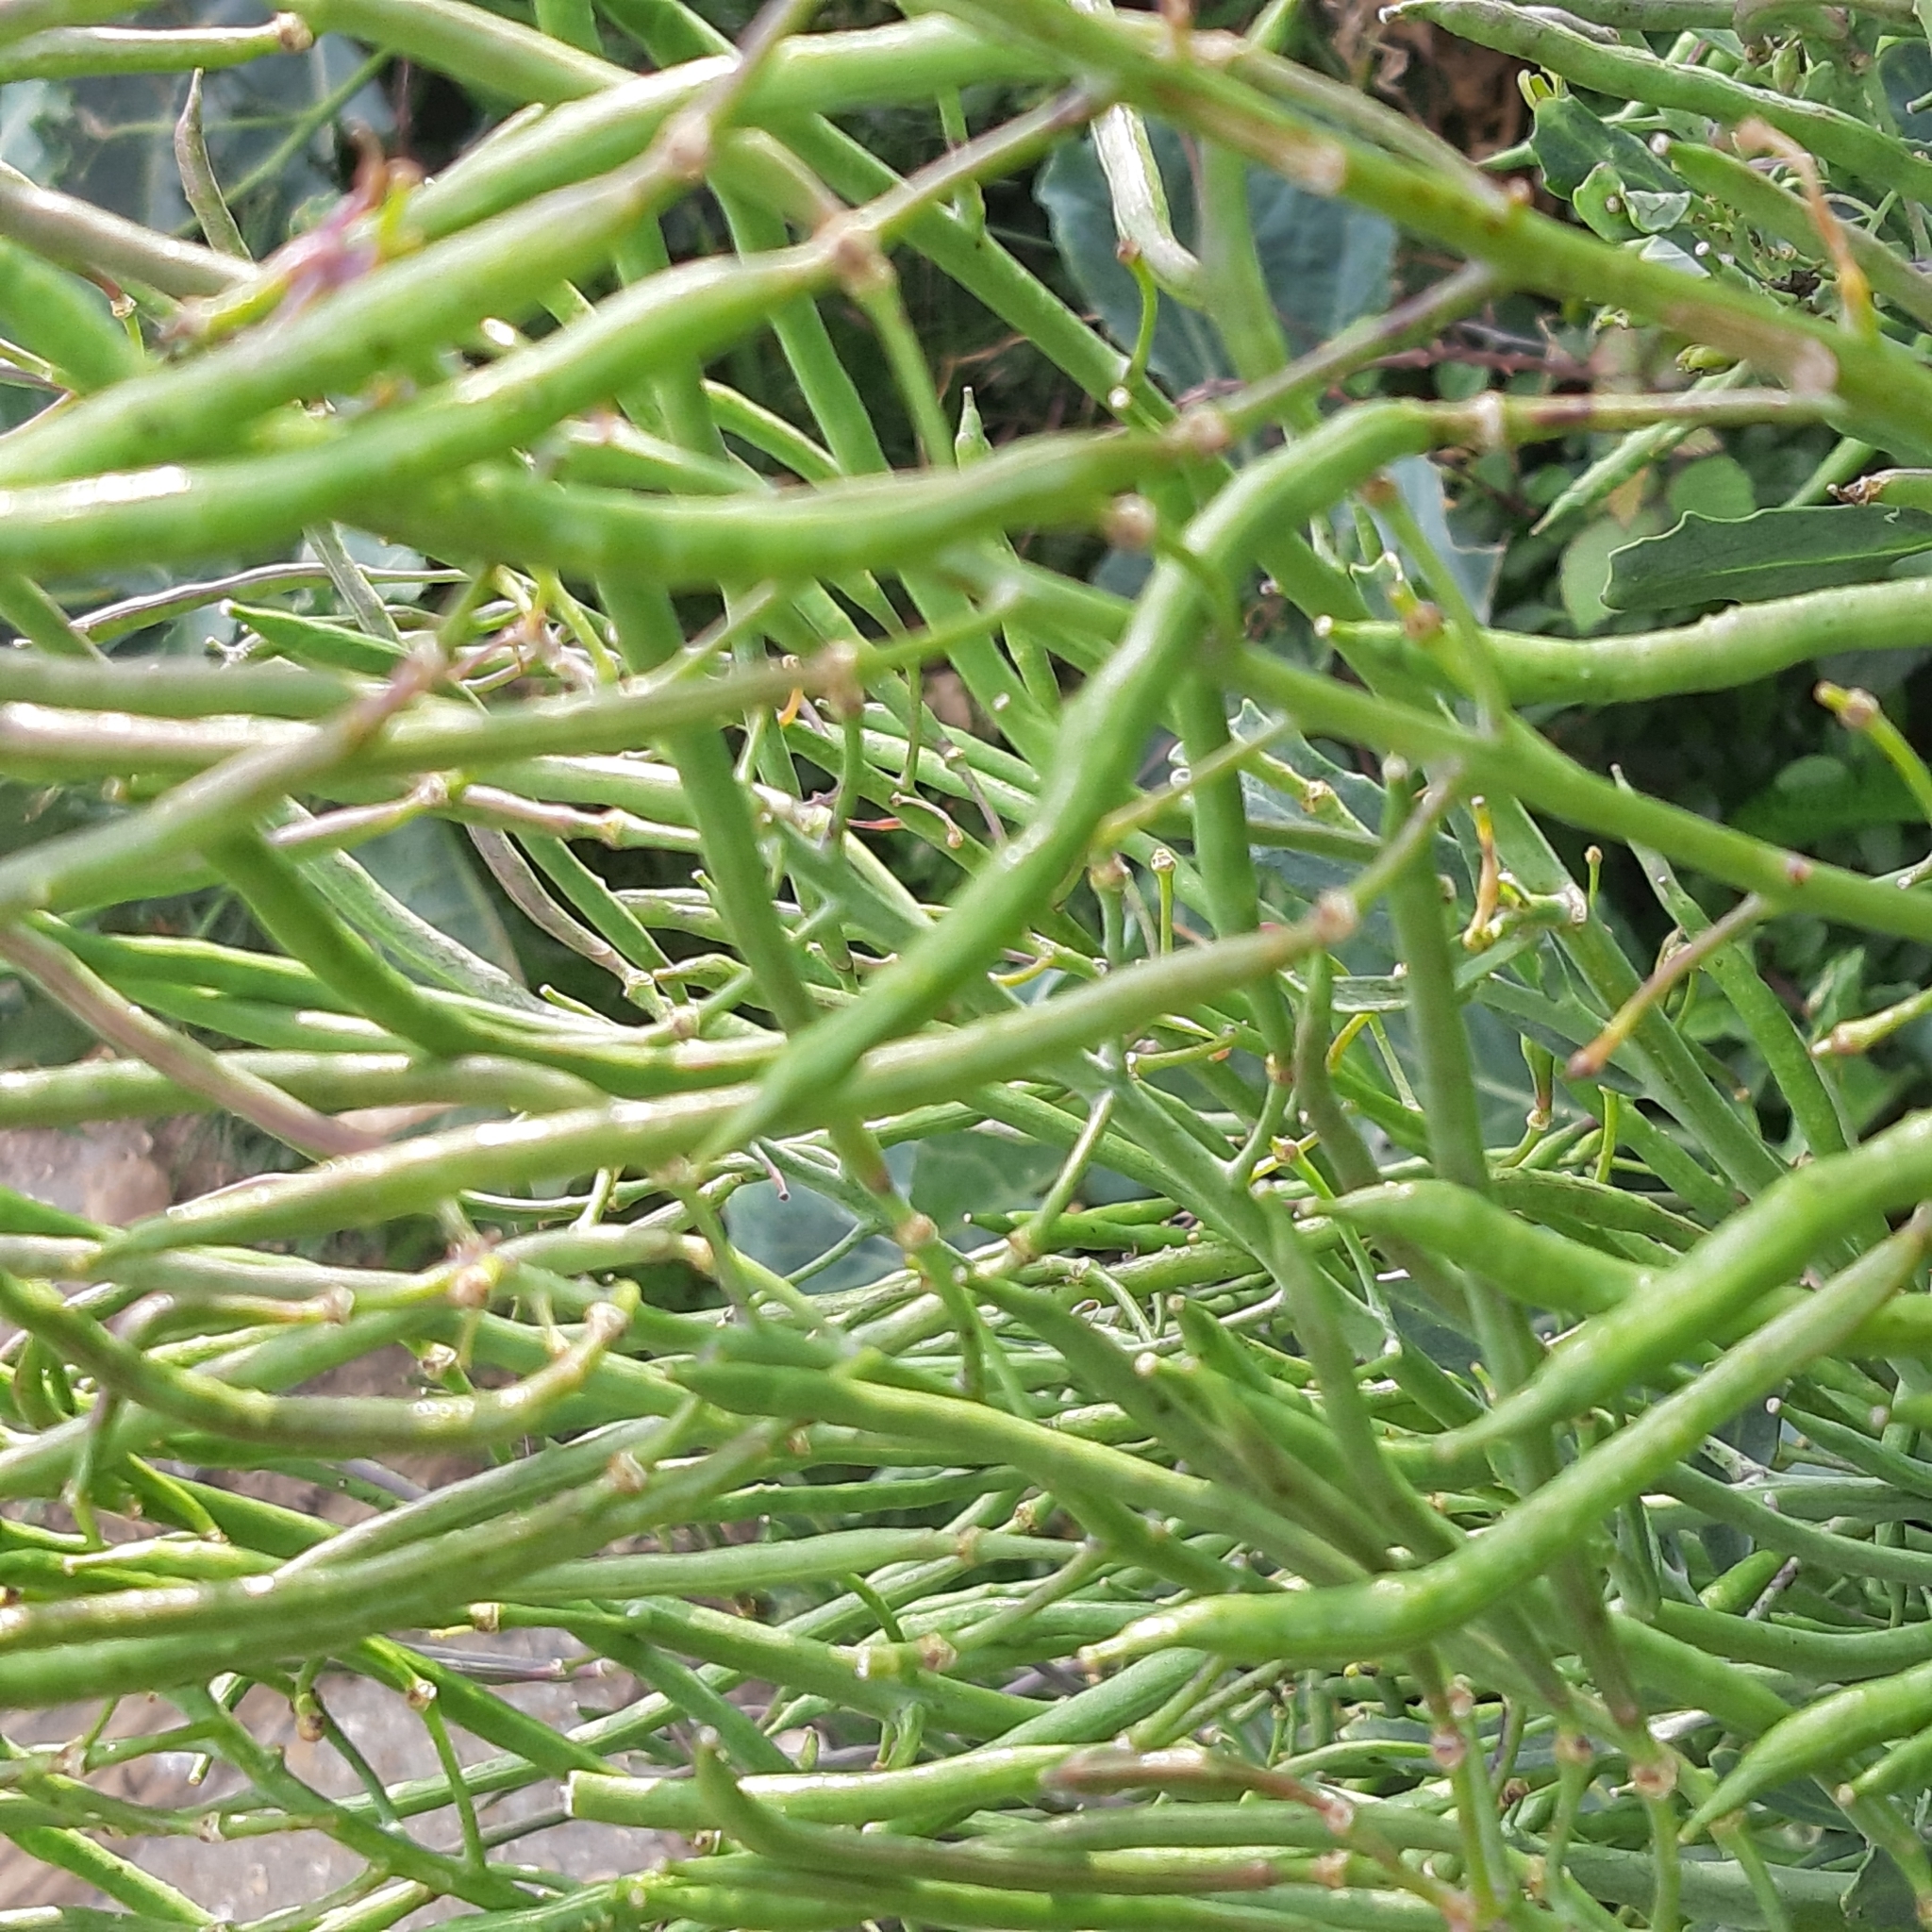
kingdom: Plantae
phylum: Tracheophyta
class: Magnoliopsida
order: Brassicales
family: Brassicaceae
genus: Brassica
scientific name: Brassica oleracea
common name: Cabbage
